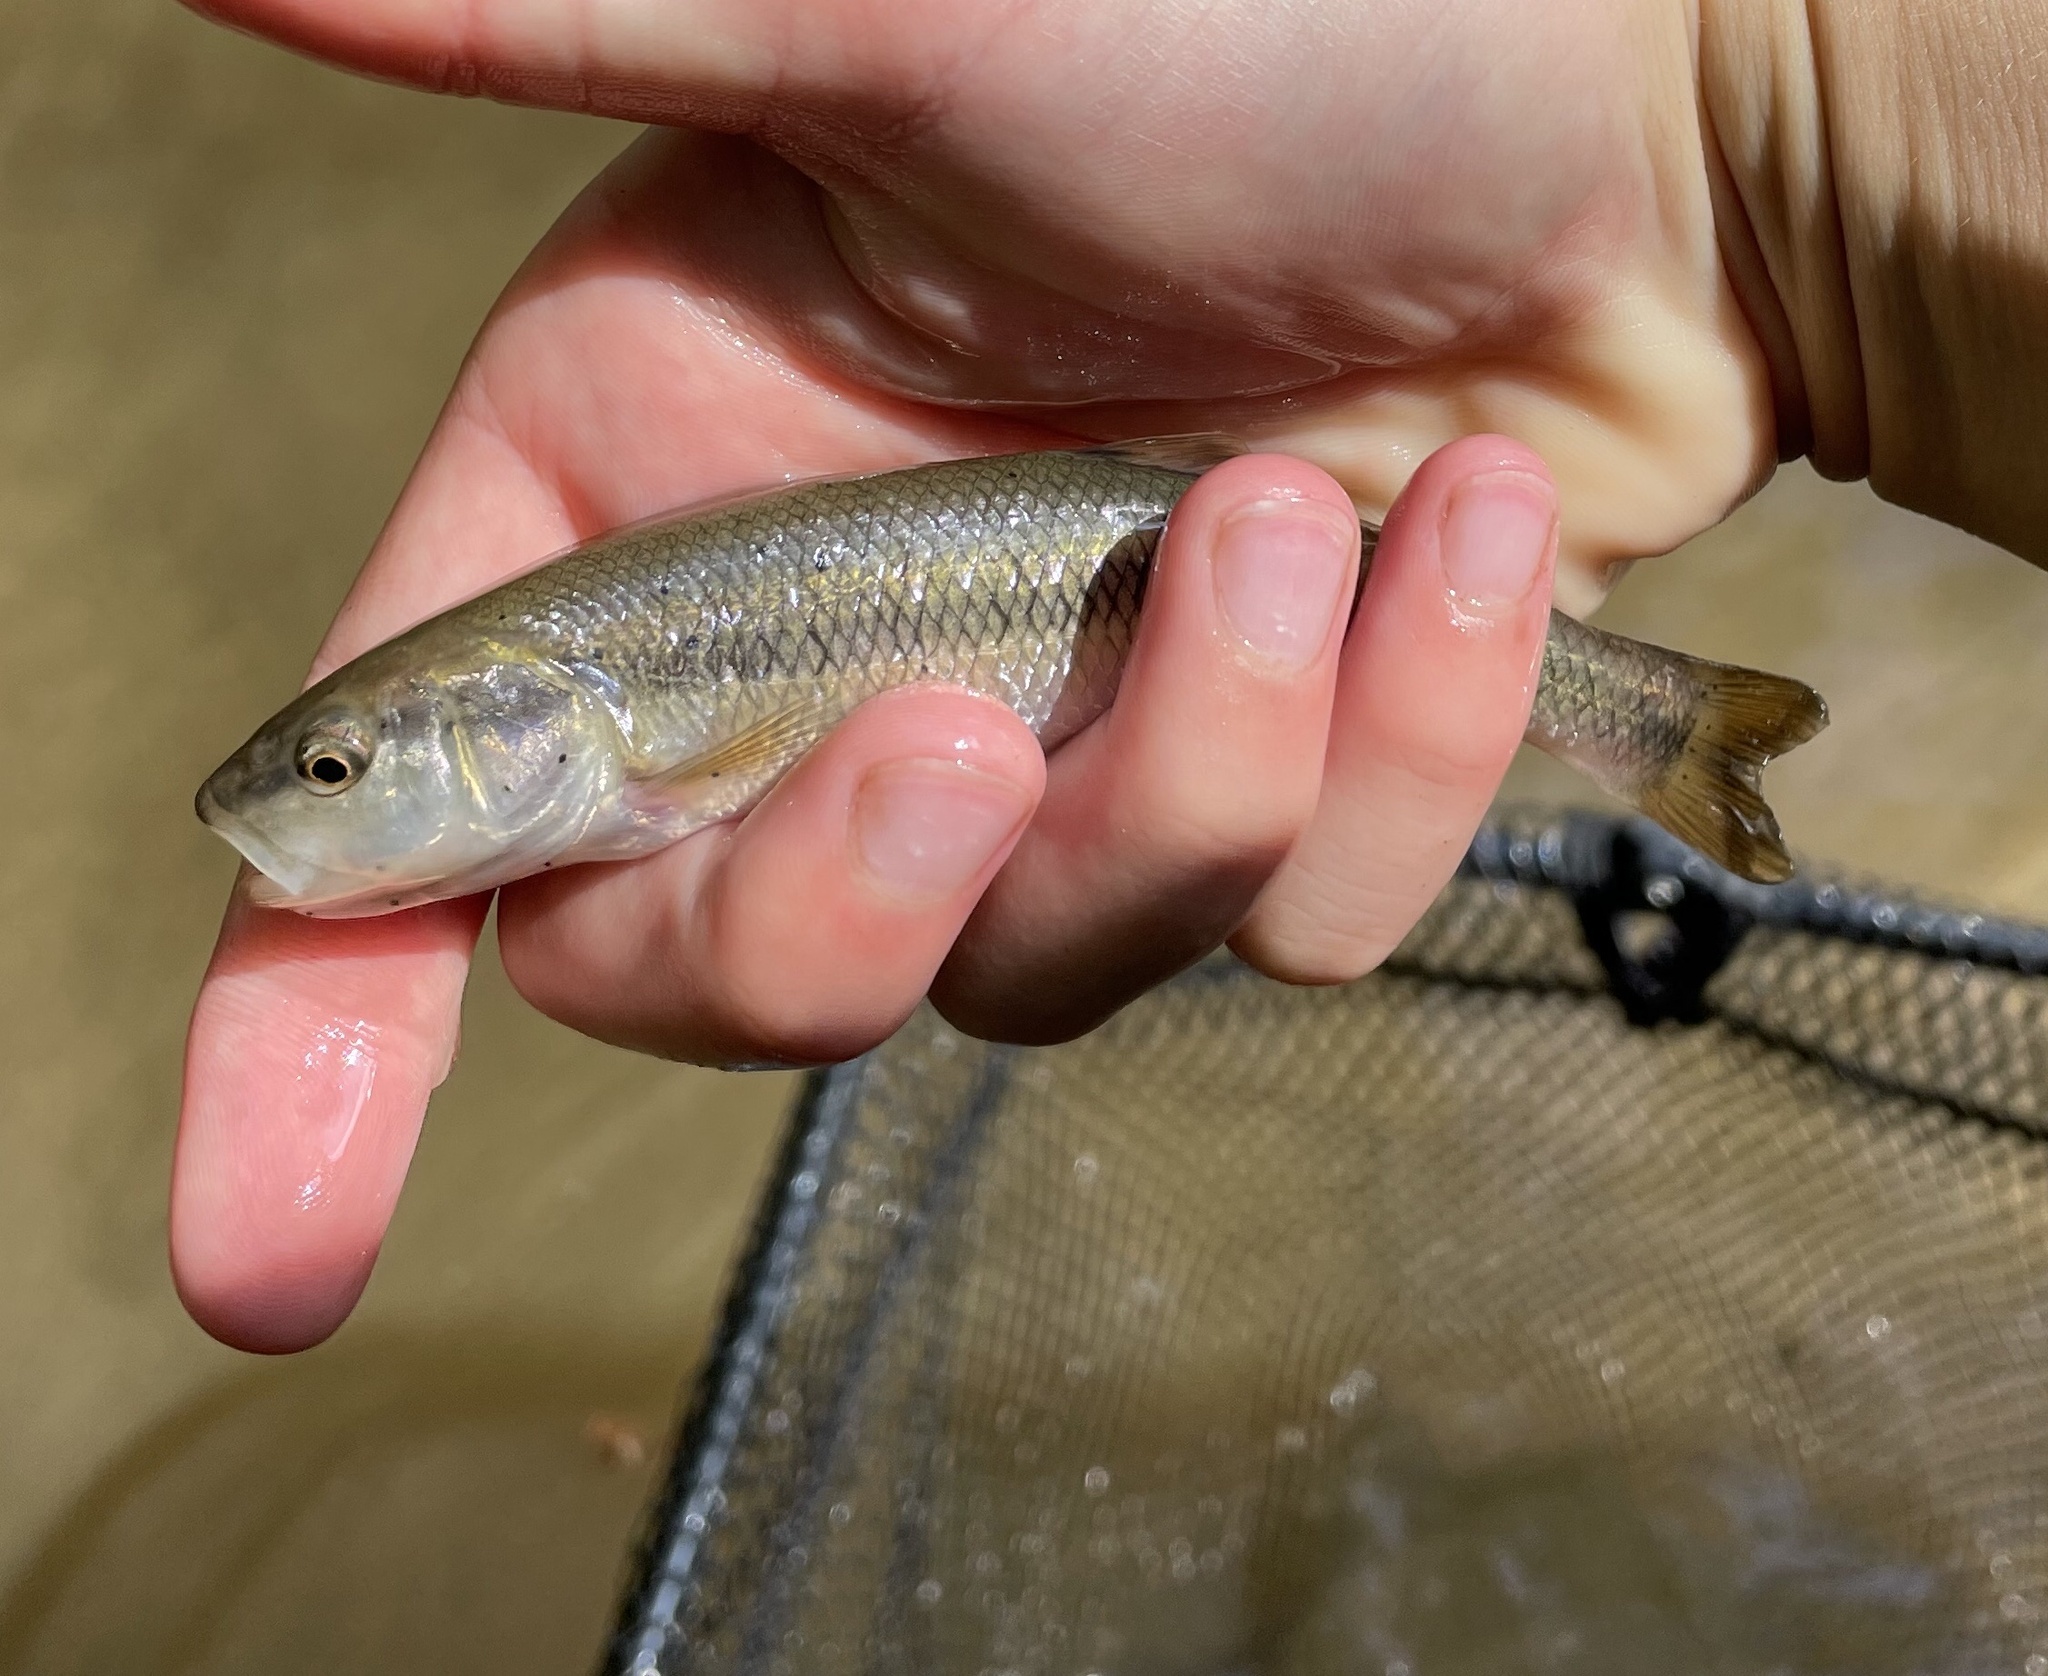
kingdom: Animalia
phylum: Chordata
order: Cypriniformes
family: Cyprinidae
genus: Semotilus
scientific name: Semotilus atromaculatus
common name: Creek chub
